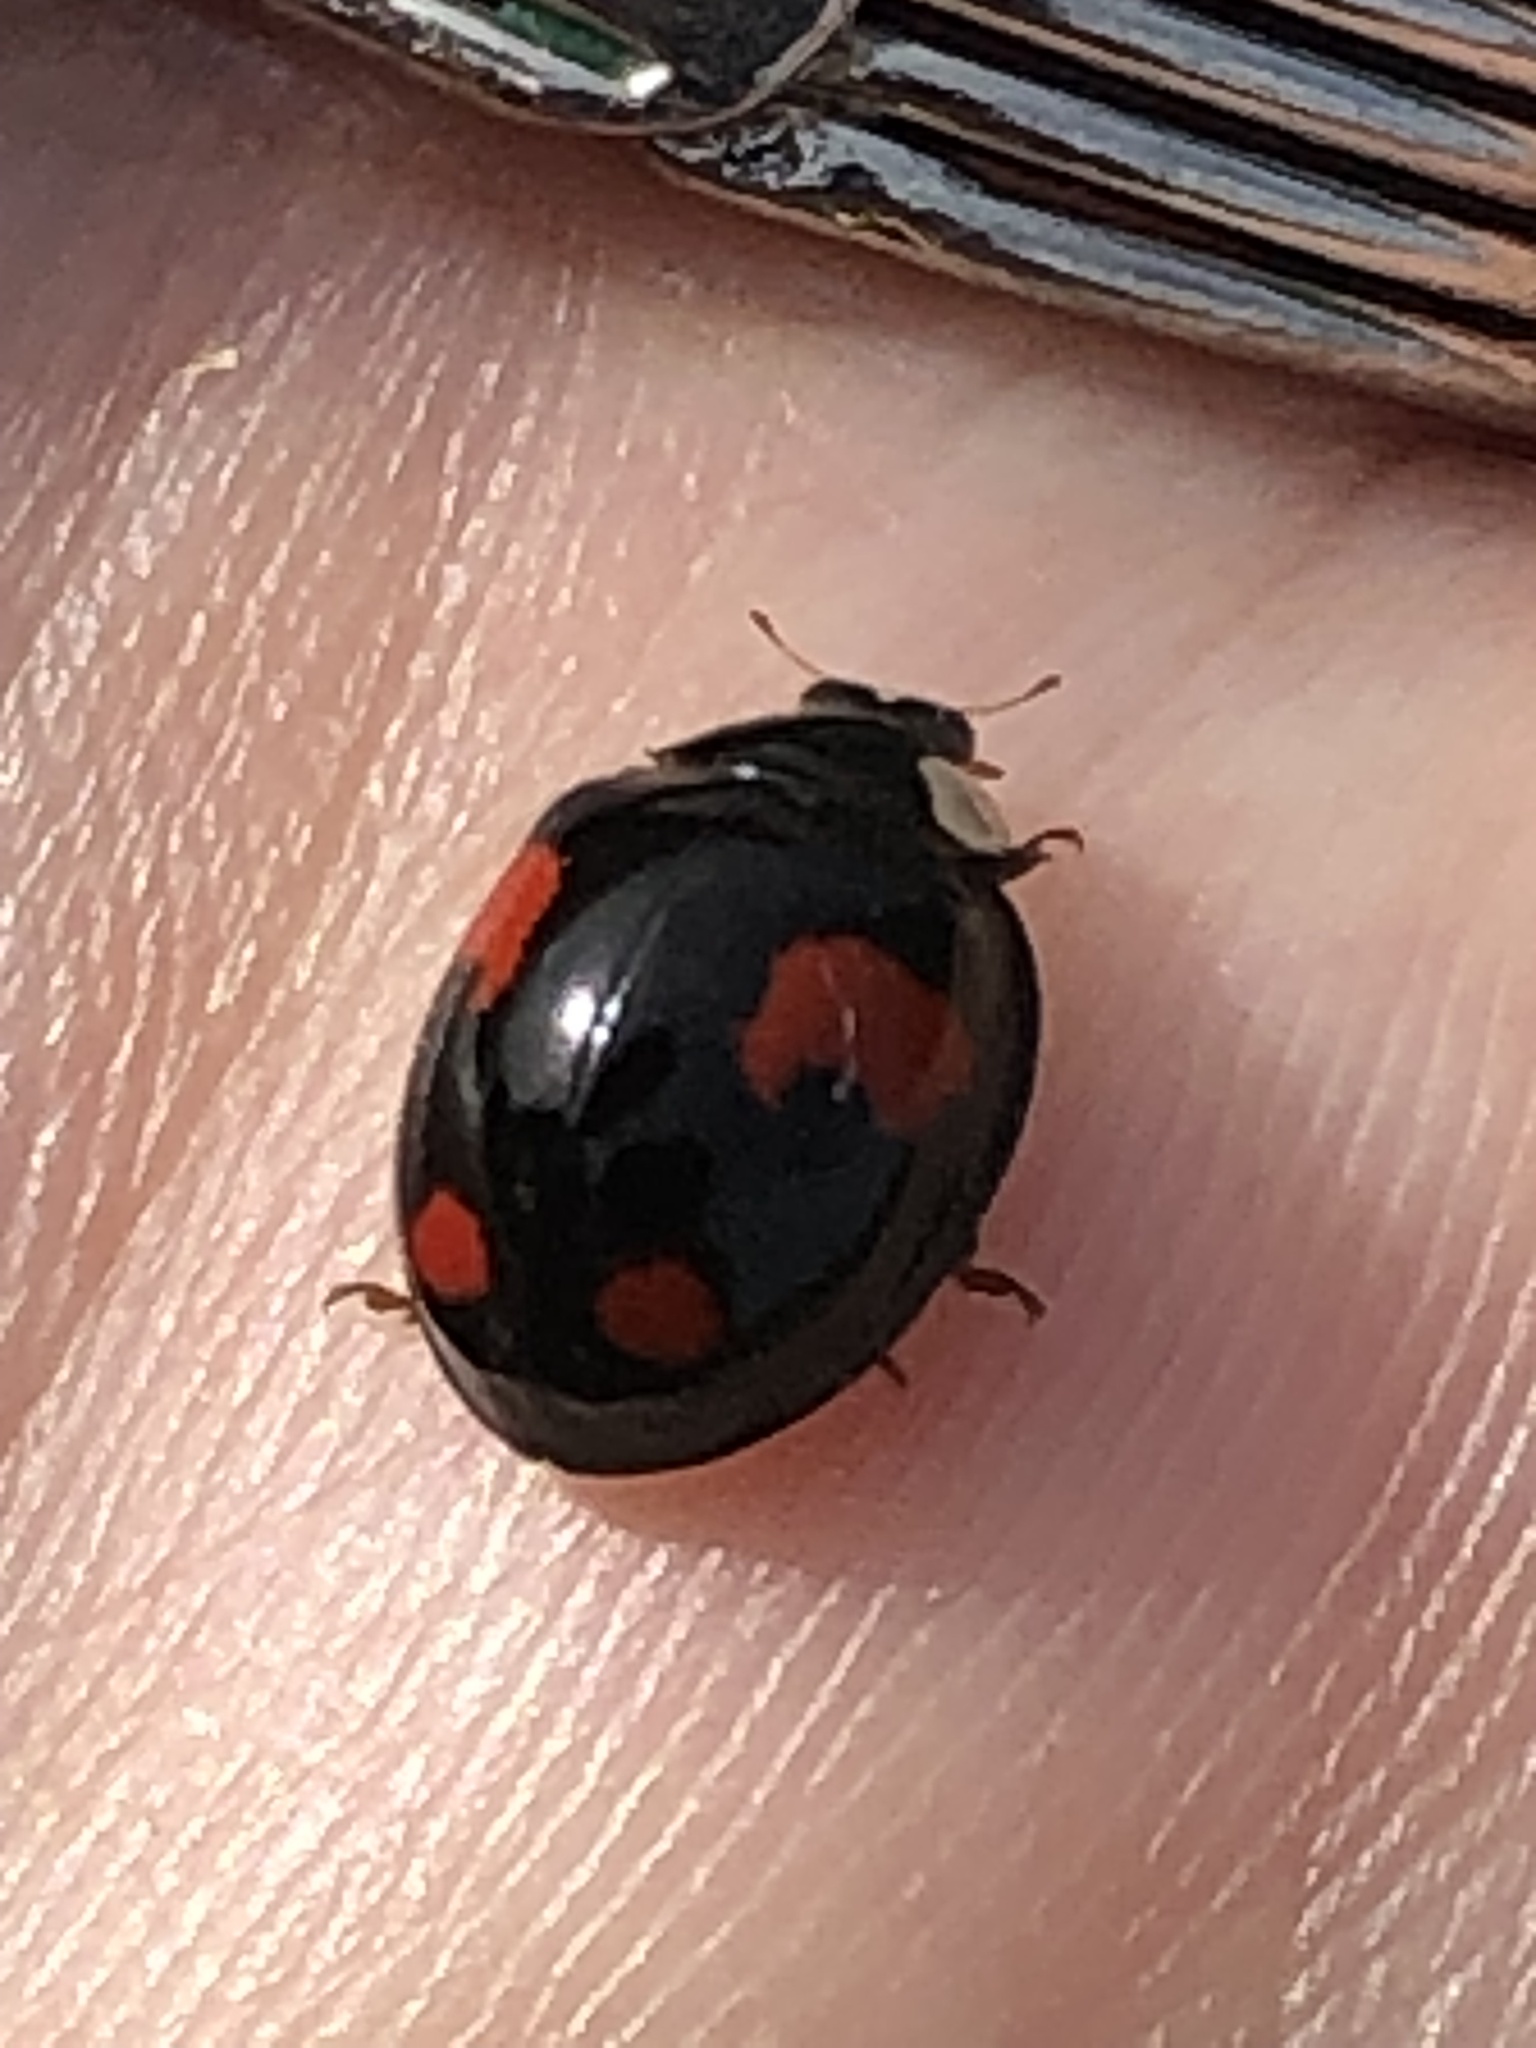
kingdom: Animalia
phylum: Arthropoda
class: Insecta
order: Coleoptera
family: Coccinellidae
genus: Harmonia
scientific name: Harmonia axyridis
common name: Harlequin ladybird
